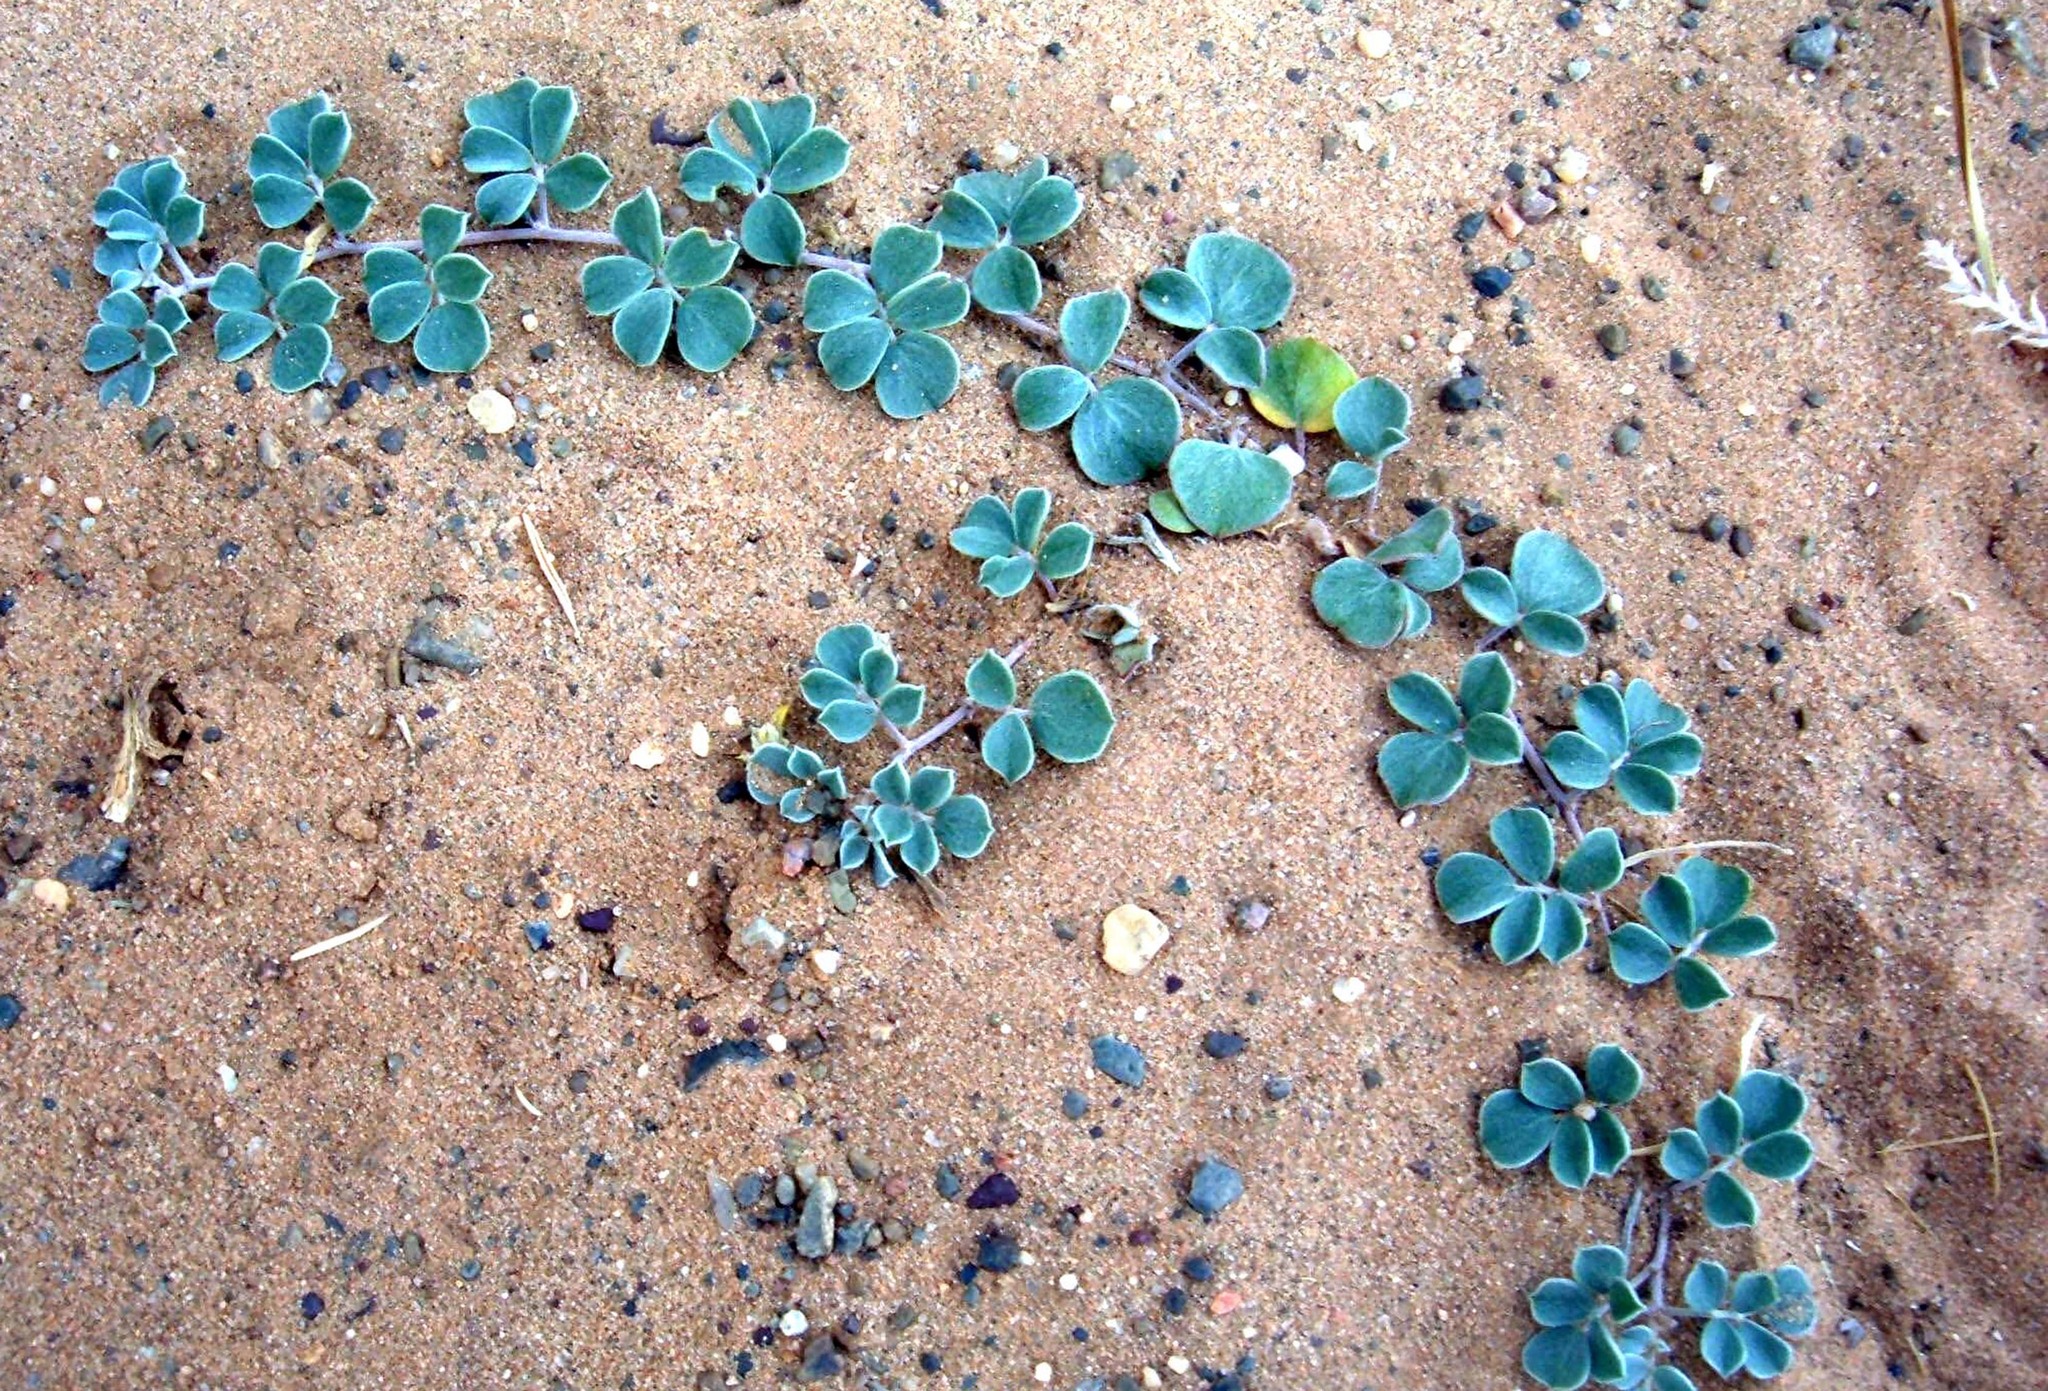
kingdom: Plantae
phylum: Tracheophyta
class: Magnoliopsida
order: Fabales
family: Fabaceae
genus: Chesneya
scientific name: Chesneya mongolica
